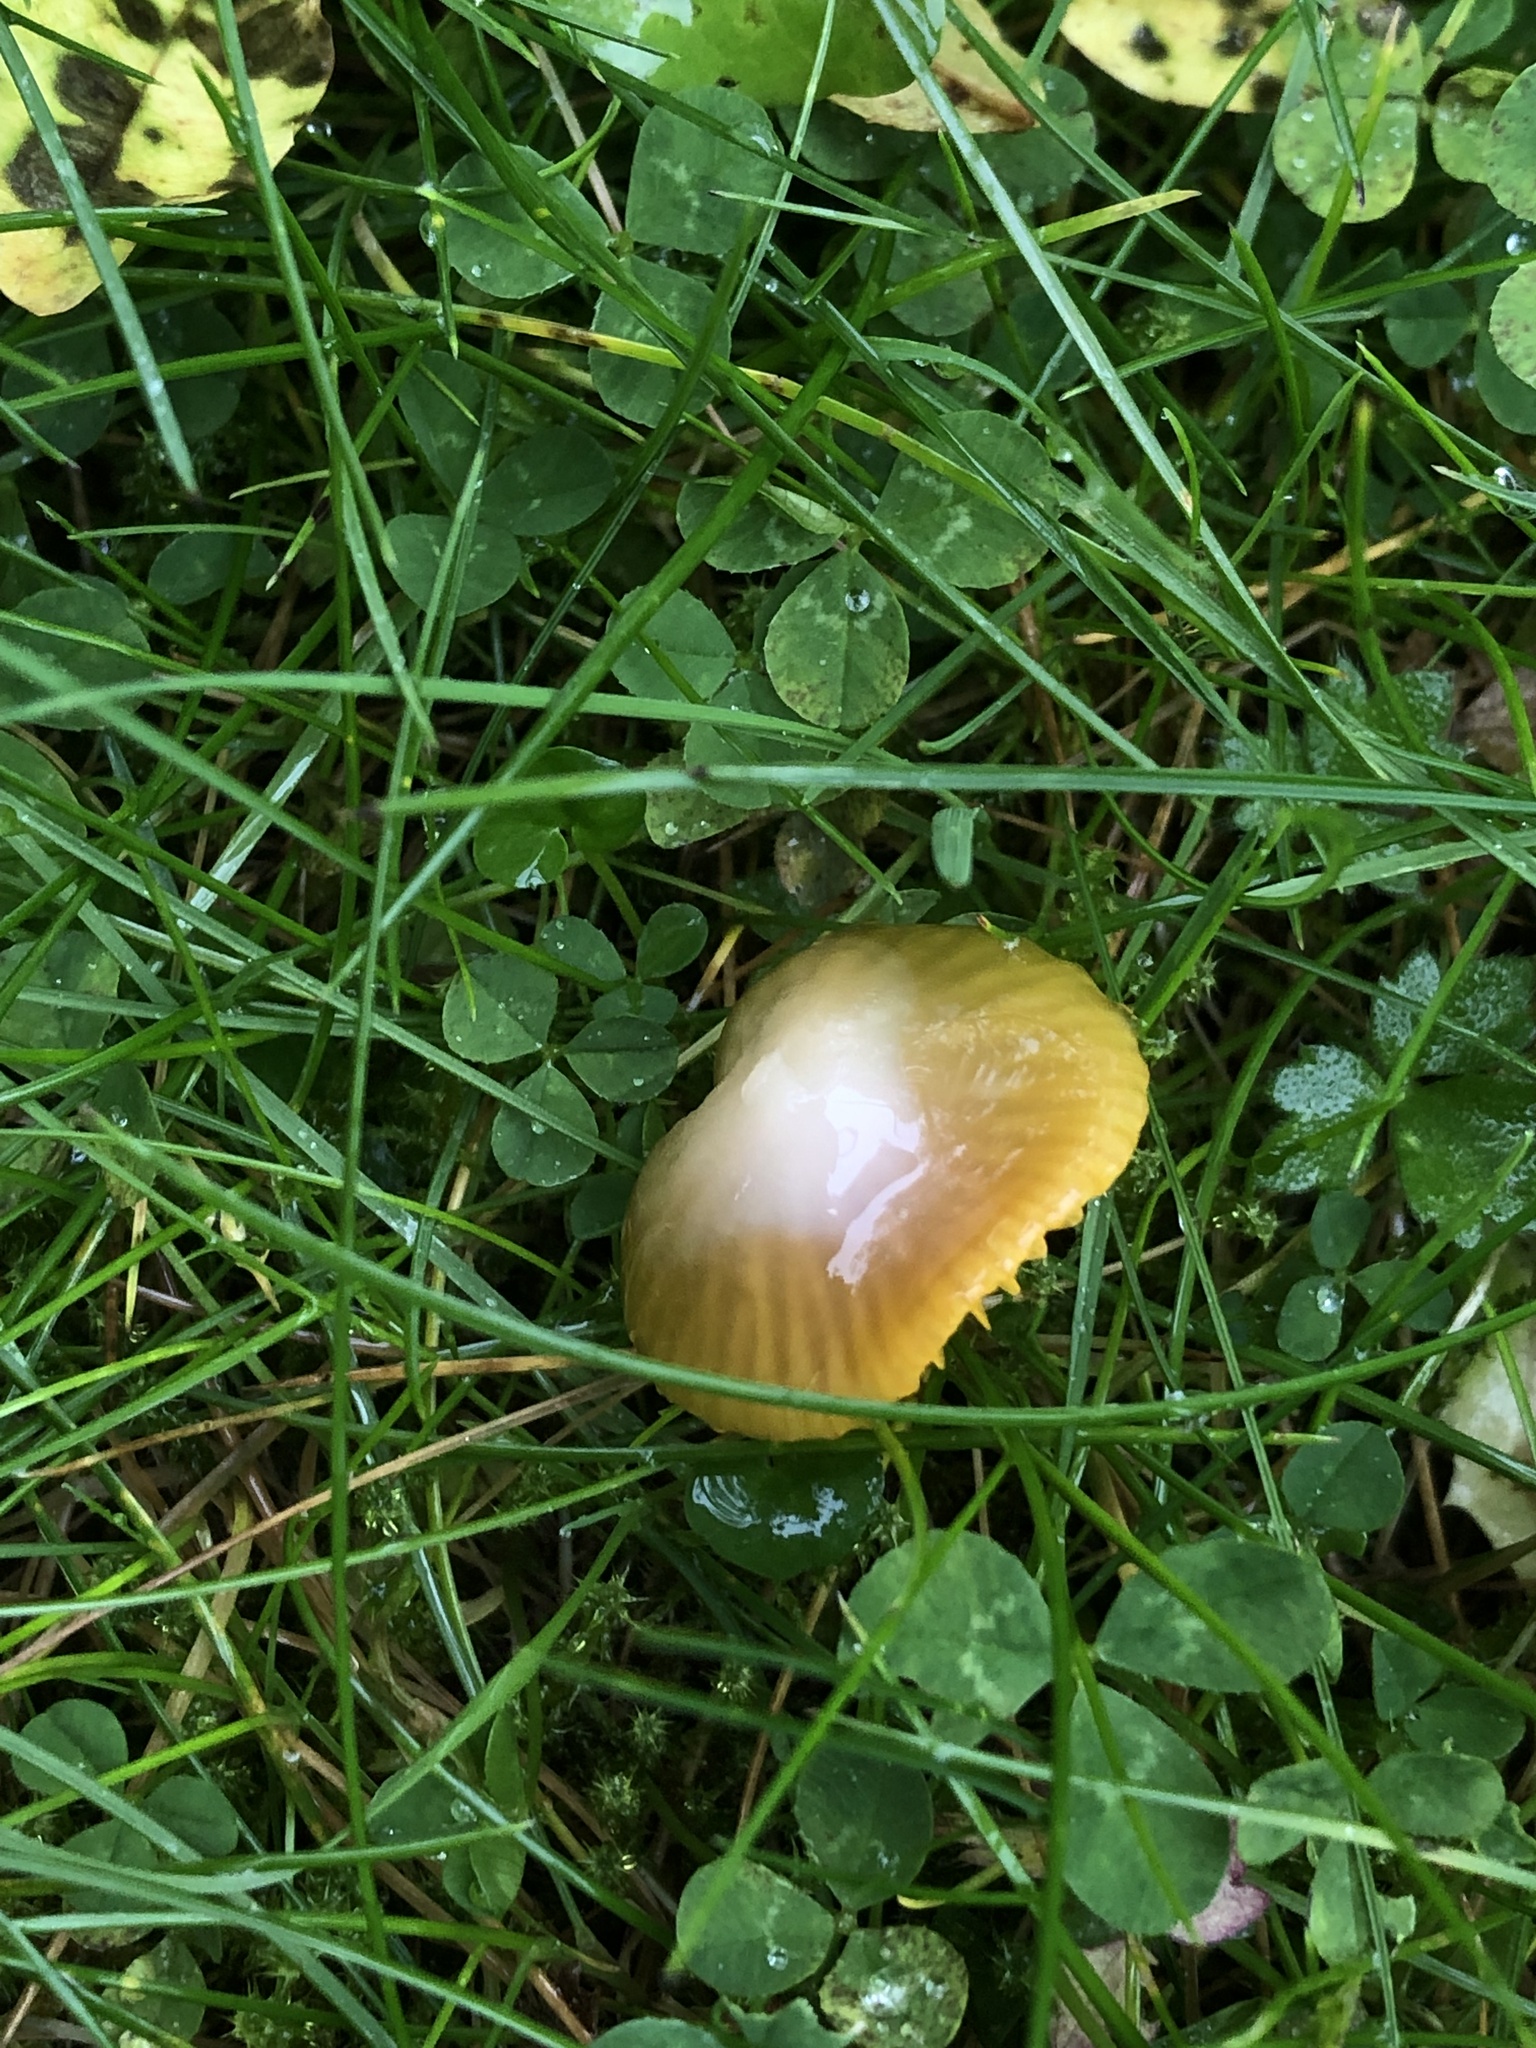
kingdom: Fungi
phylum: Basidiomycota
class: Agaricomycetes
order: Agaricales
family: Hygrophoraceae
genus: Gliophorus
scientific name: Gliophorus psittacinus
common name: Parrot wax-cap
